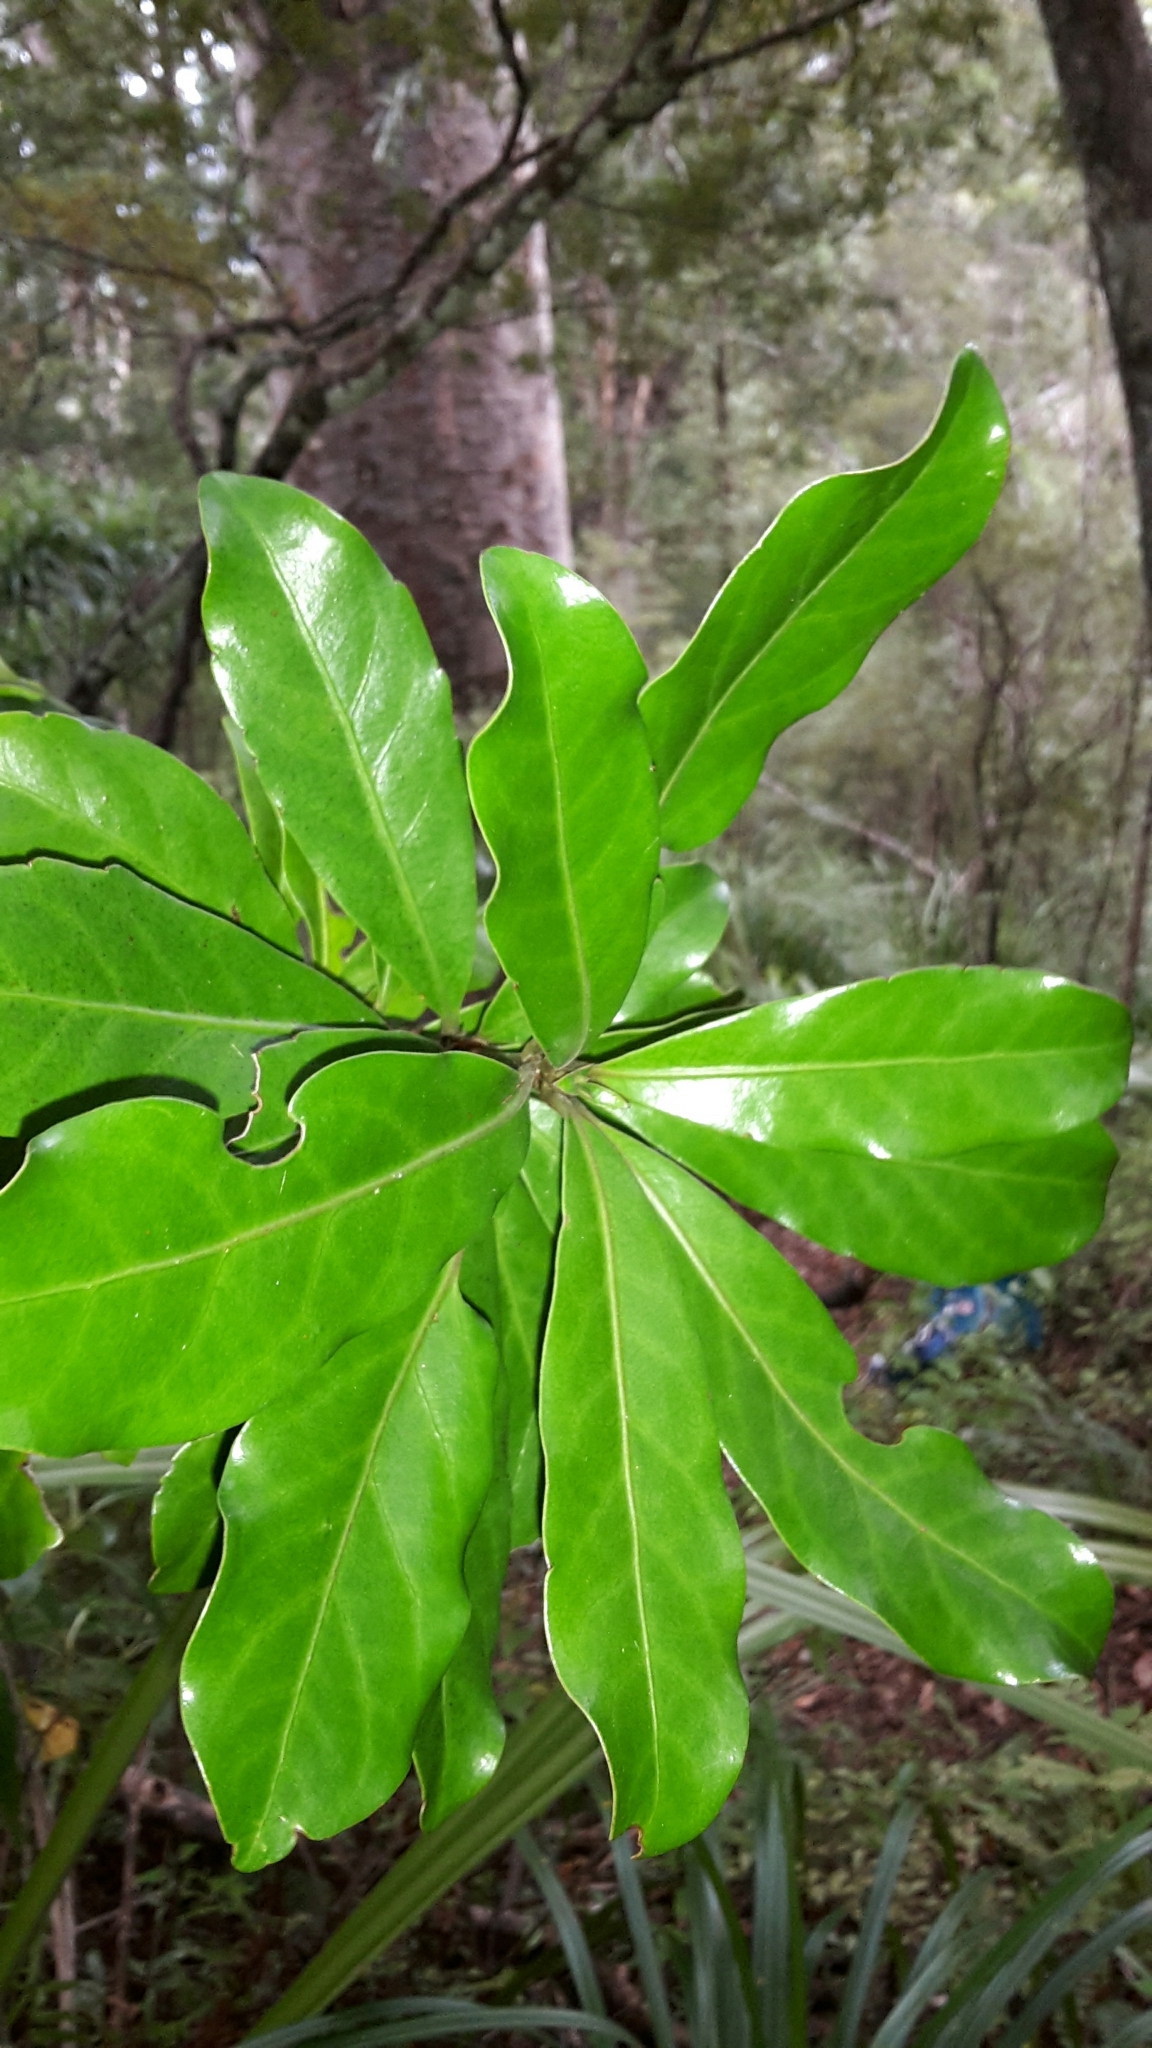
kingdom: Plantae
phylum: Tracheophyta
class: Magnoliopsida
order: Asterales
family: Alseuosmiaceae
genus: Alseuosmia
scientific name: Alseuosmia macrophylla
